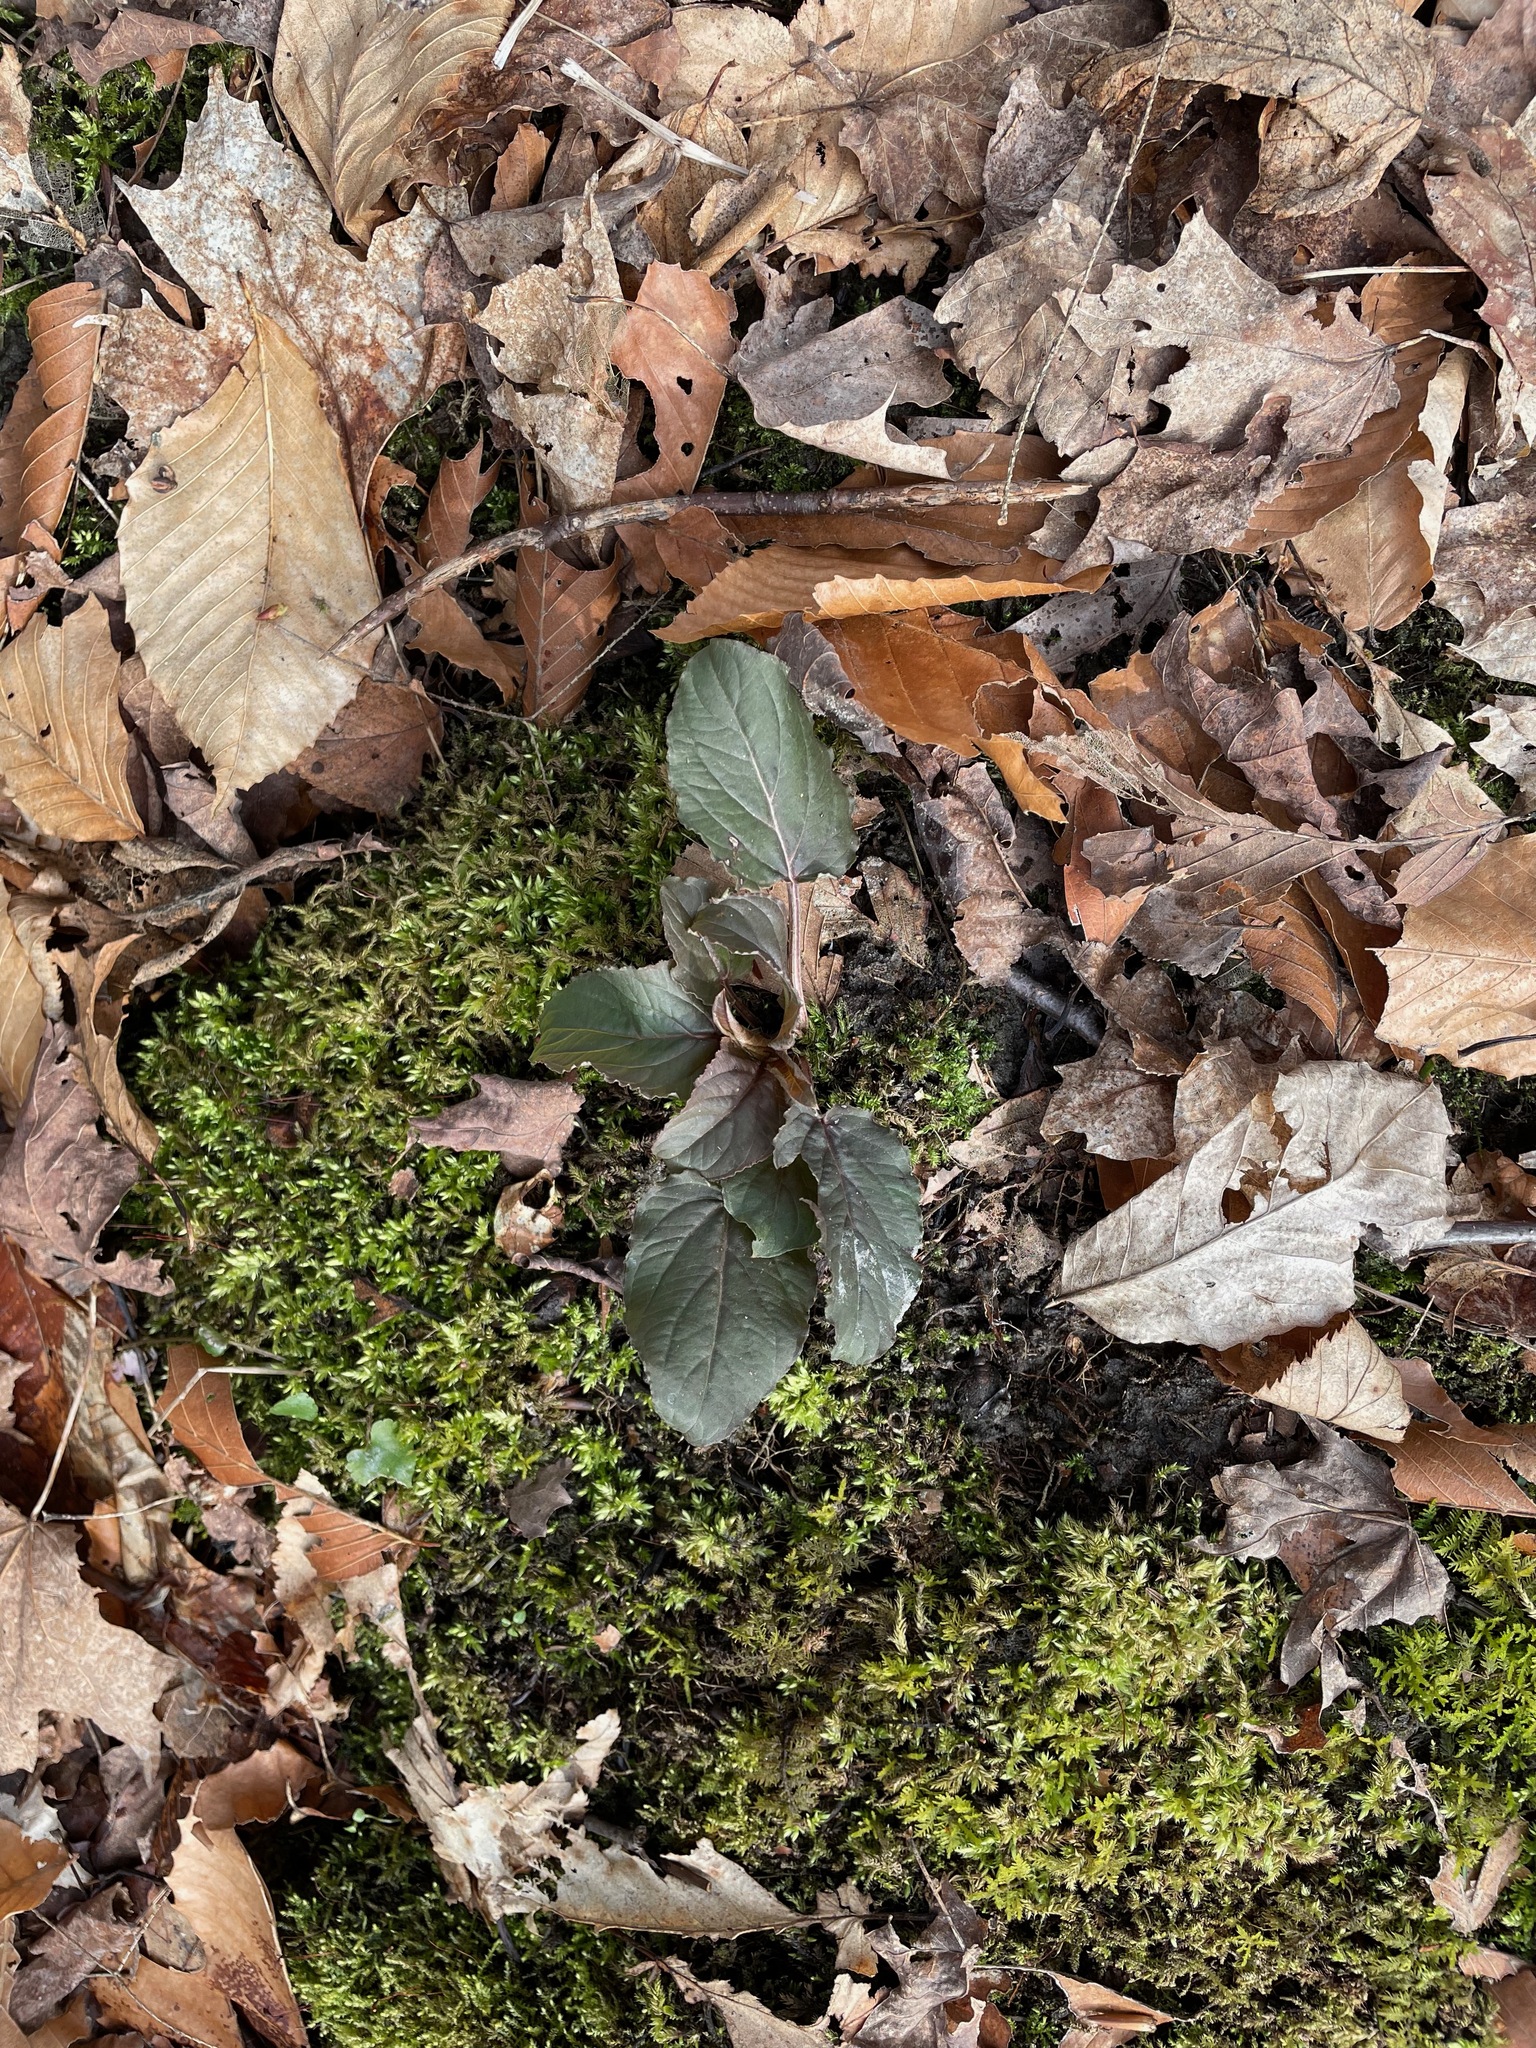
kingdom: Plantae
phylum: Tracheophyta
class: Magnoliopsida
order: Ericales
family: Primulaceae
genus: Lysimachia
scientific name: Lysimachia ciliata
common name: Fringed loosestrife
